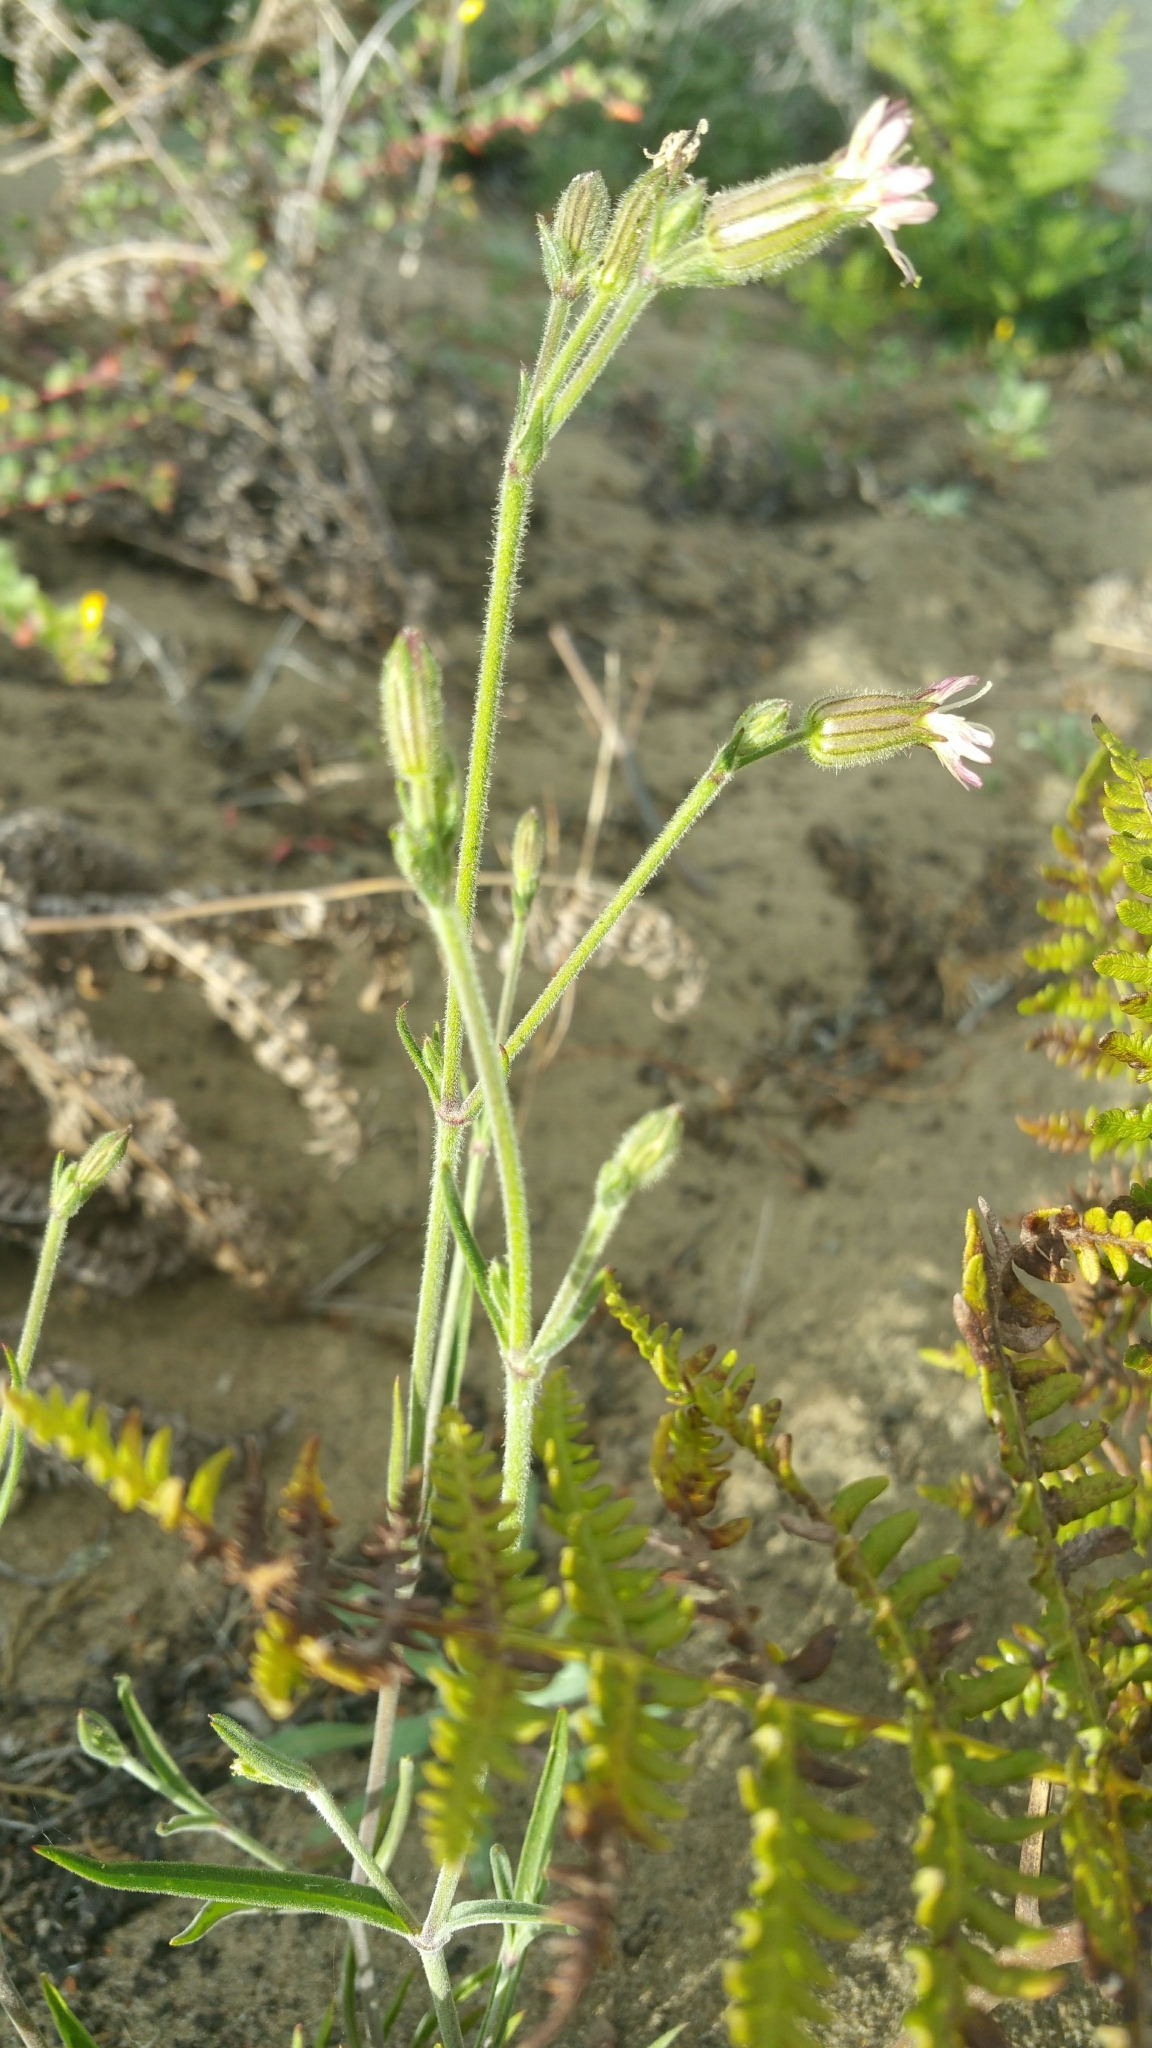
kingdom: Plantae
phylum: Tracheophyta
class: Magnoliopsida
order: Caryophyllales
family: Caryophyllaceae
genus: Silene
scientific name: Silene verecunda
